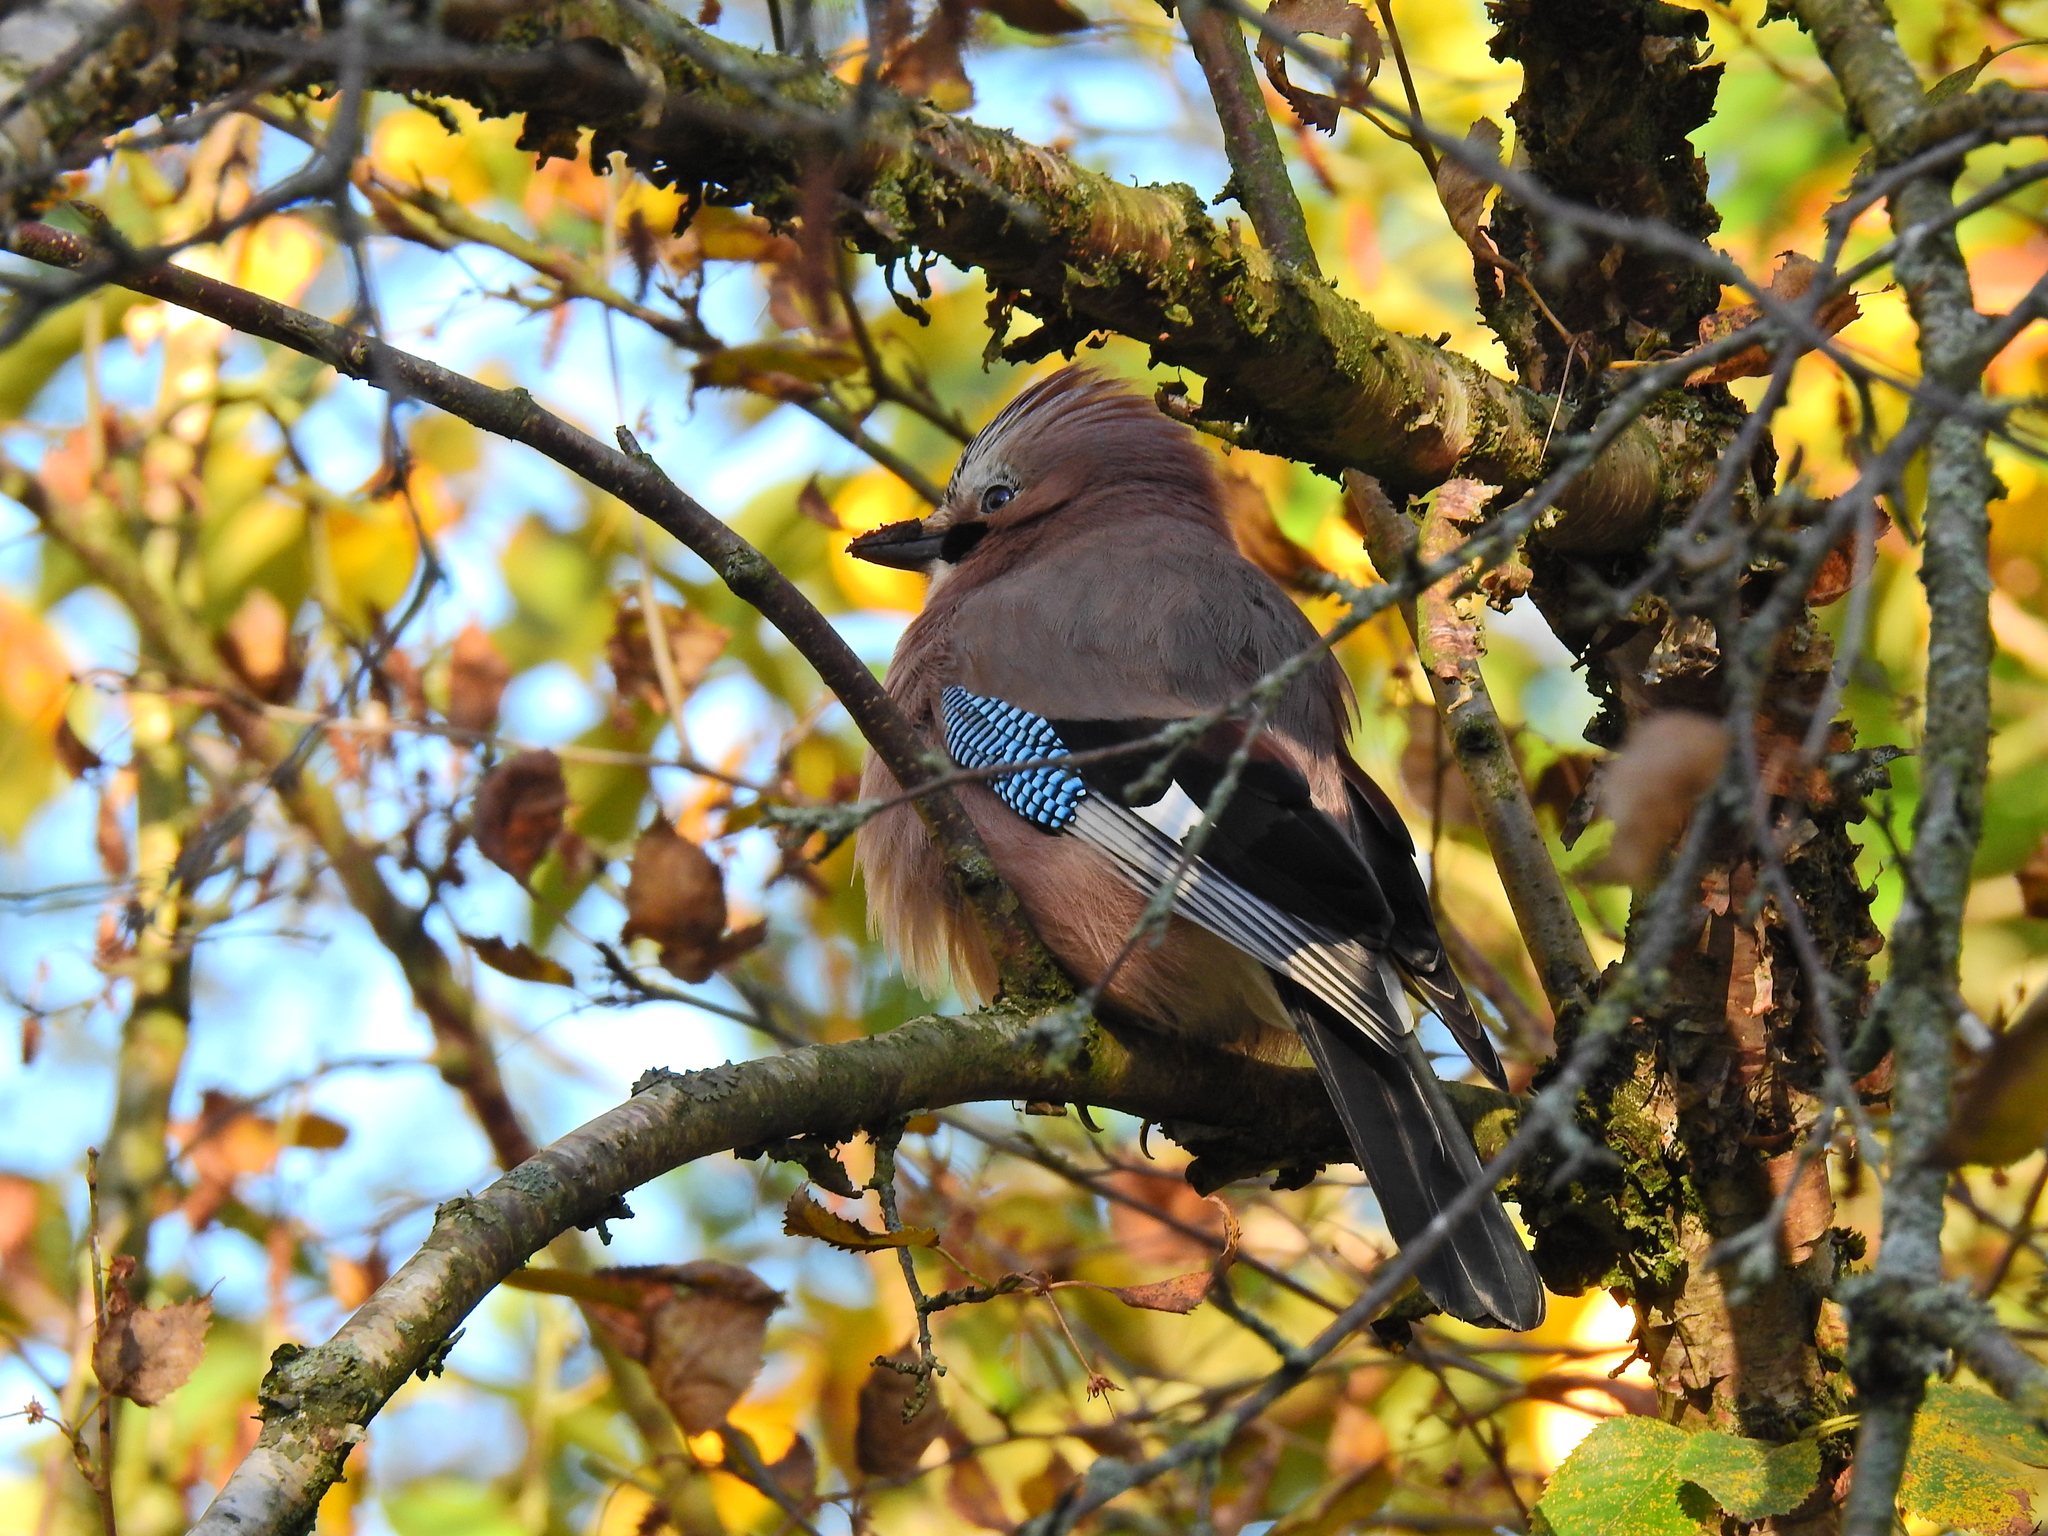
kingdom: Animalia
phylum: Chordata
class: Aves
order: Passeriformes
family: Corvidae
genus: Garrulus
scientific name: Garrulus glandarius
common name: Eurasian jay
